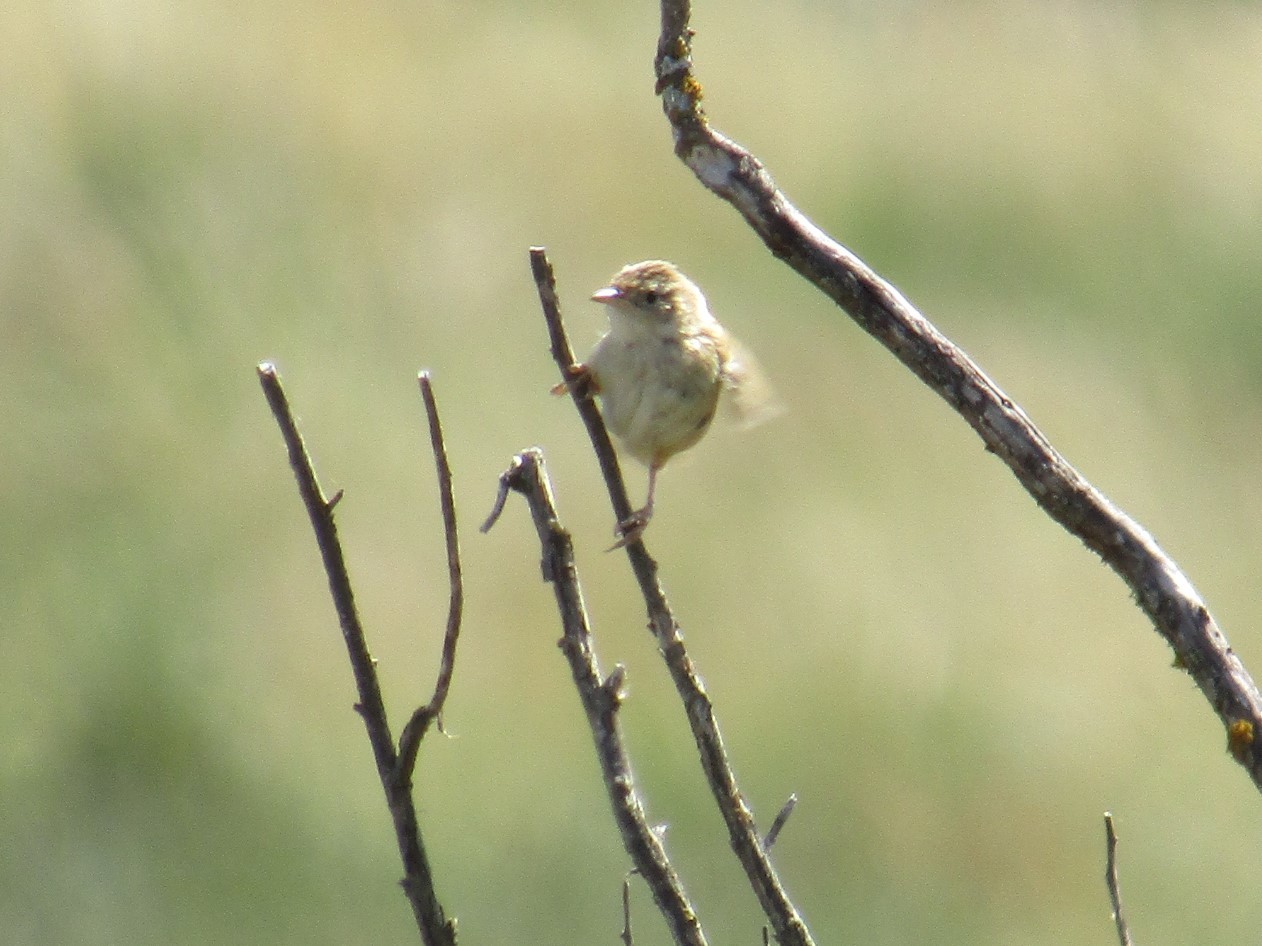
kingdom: Animalia
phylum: Chordata
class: Aves
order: Passeriformes
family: Troglodytidae
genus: Cistothorus
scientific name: Cistothorus platensis
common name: Sedge wren
